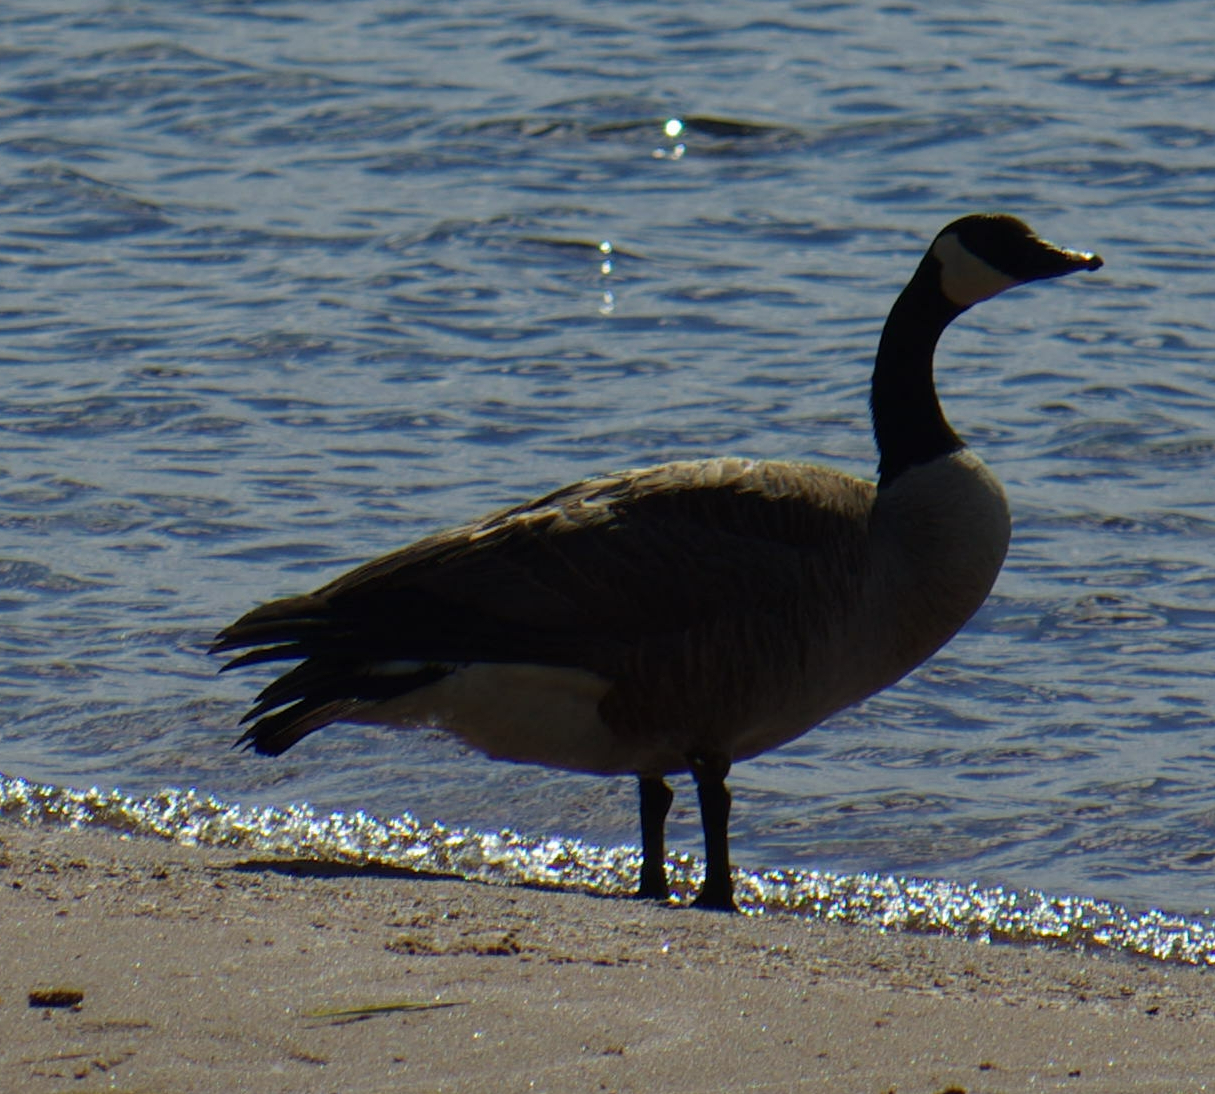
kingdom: Animalia
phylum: Chordata
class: Aves
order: Anseriformes
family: Anatidae
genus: Branta
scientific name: Branta canadensis
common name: Canada goose
